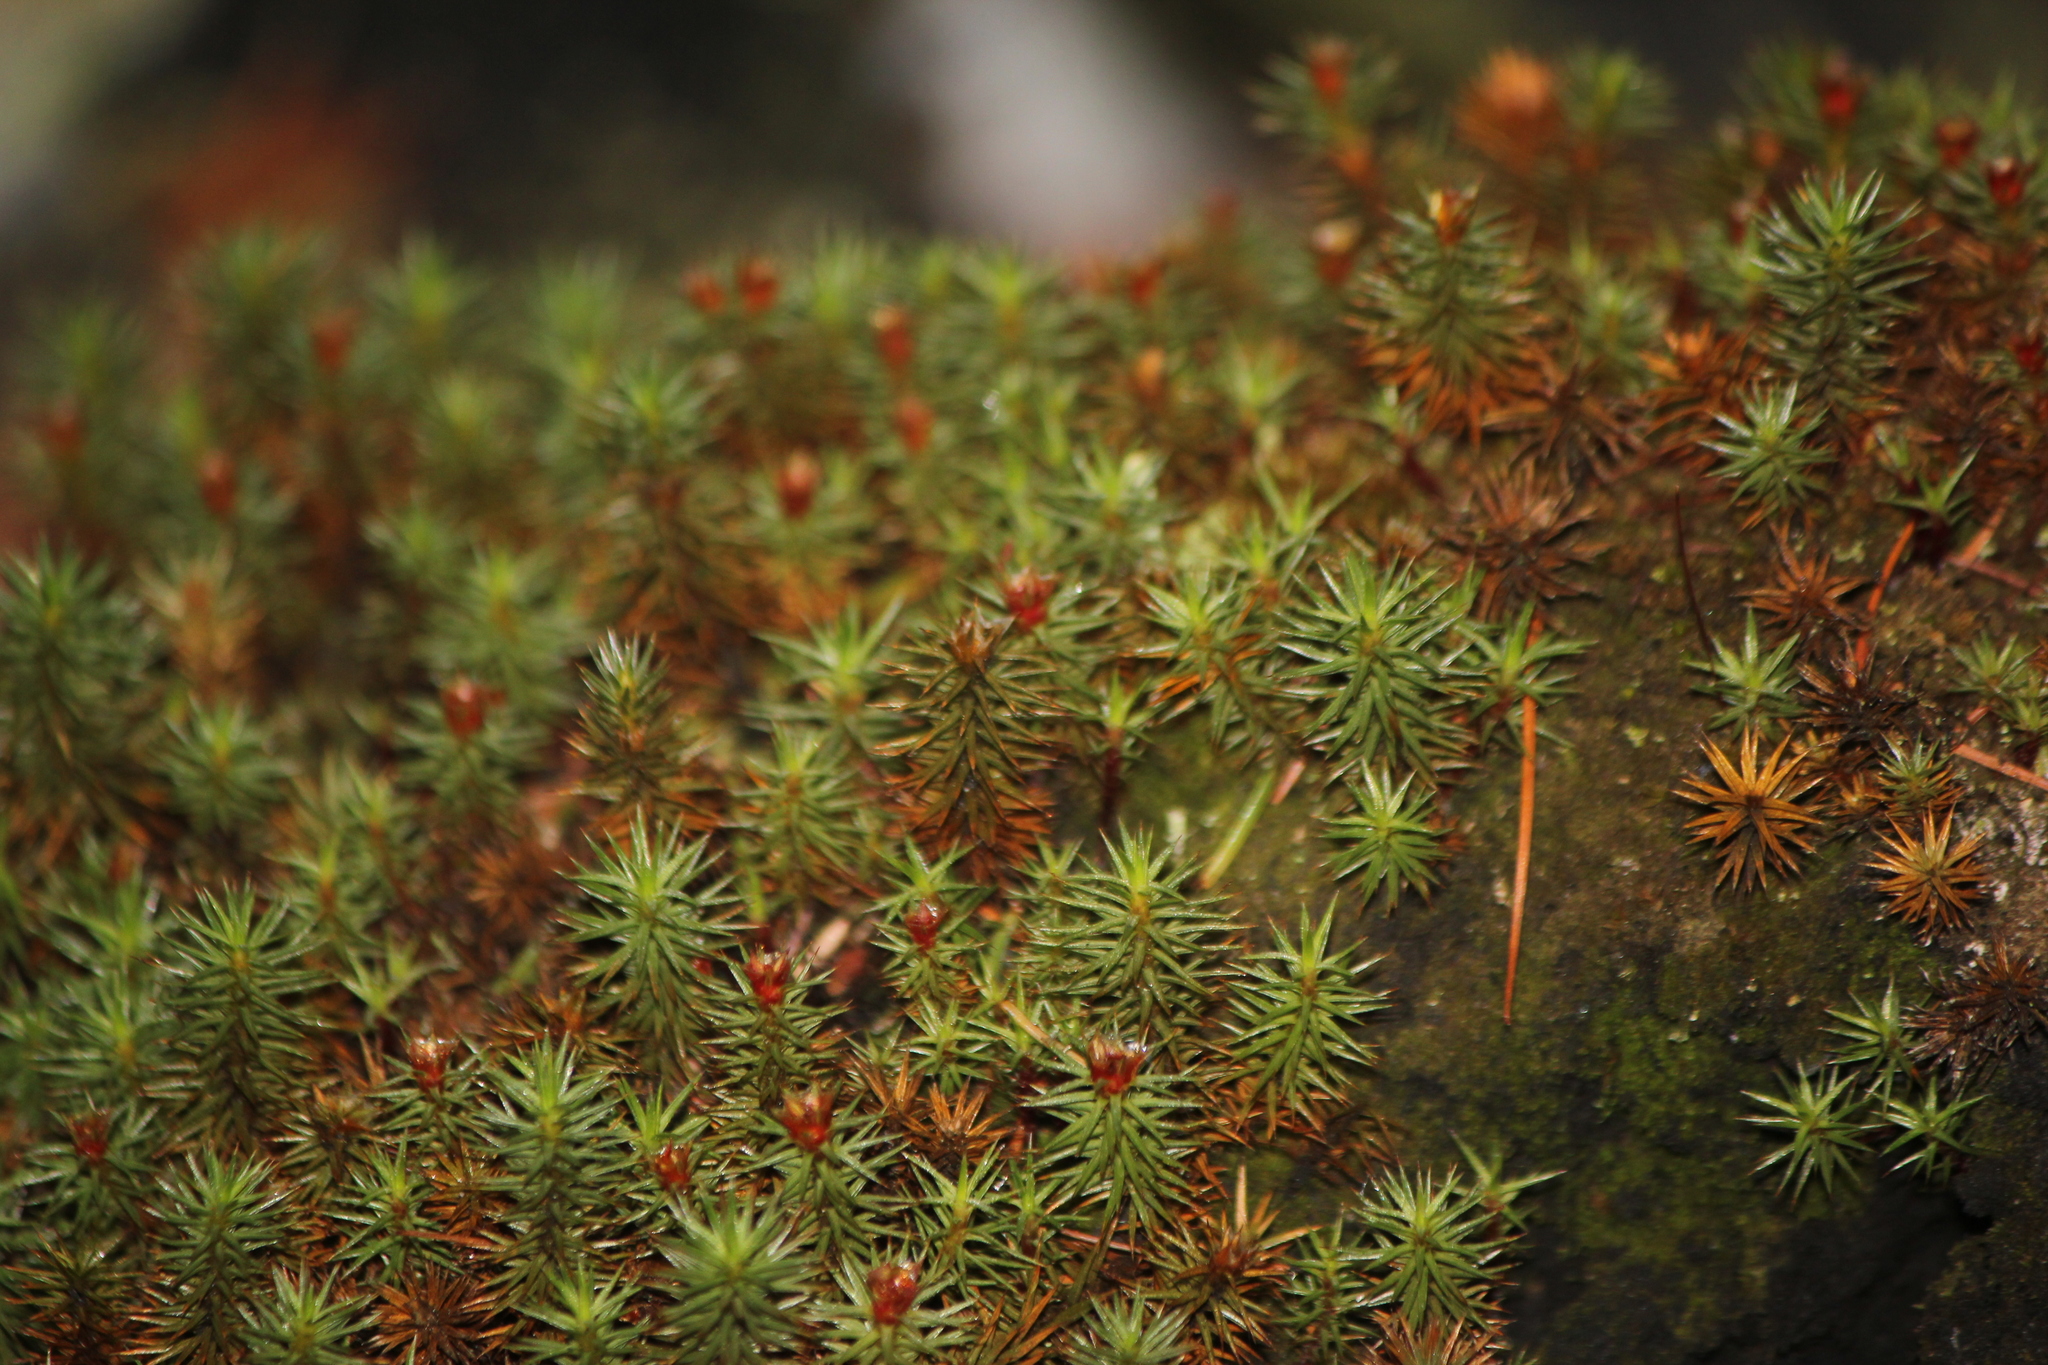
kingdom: Plantae
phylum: Bryophyta
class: Polytrichopsida
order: Polytrichales
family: Polytrichaceae
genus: Polytrichum
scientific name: Polytrichum juniperinum
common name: Juniper haircap moss
